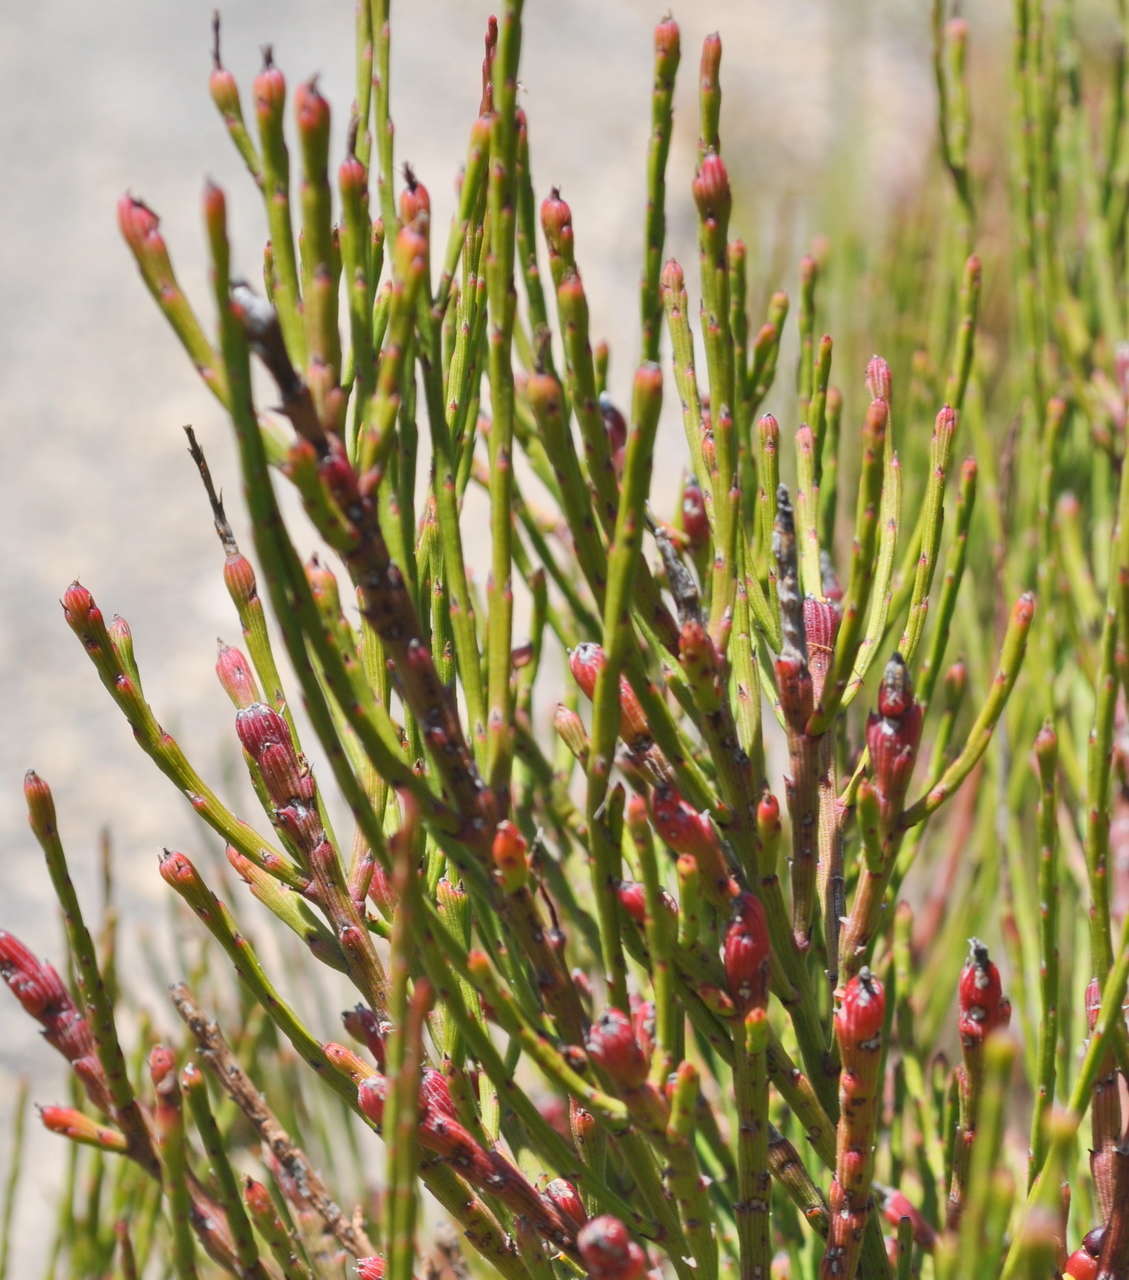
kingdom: Plantae
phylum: Tracheophyta
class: Magnoliopsida
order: Santalales
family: Santalaceae
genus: Exocarpos
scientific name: Exocarpos syrticola
